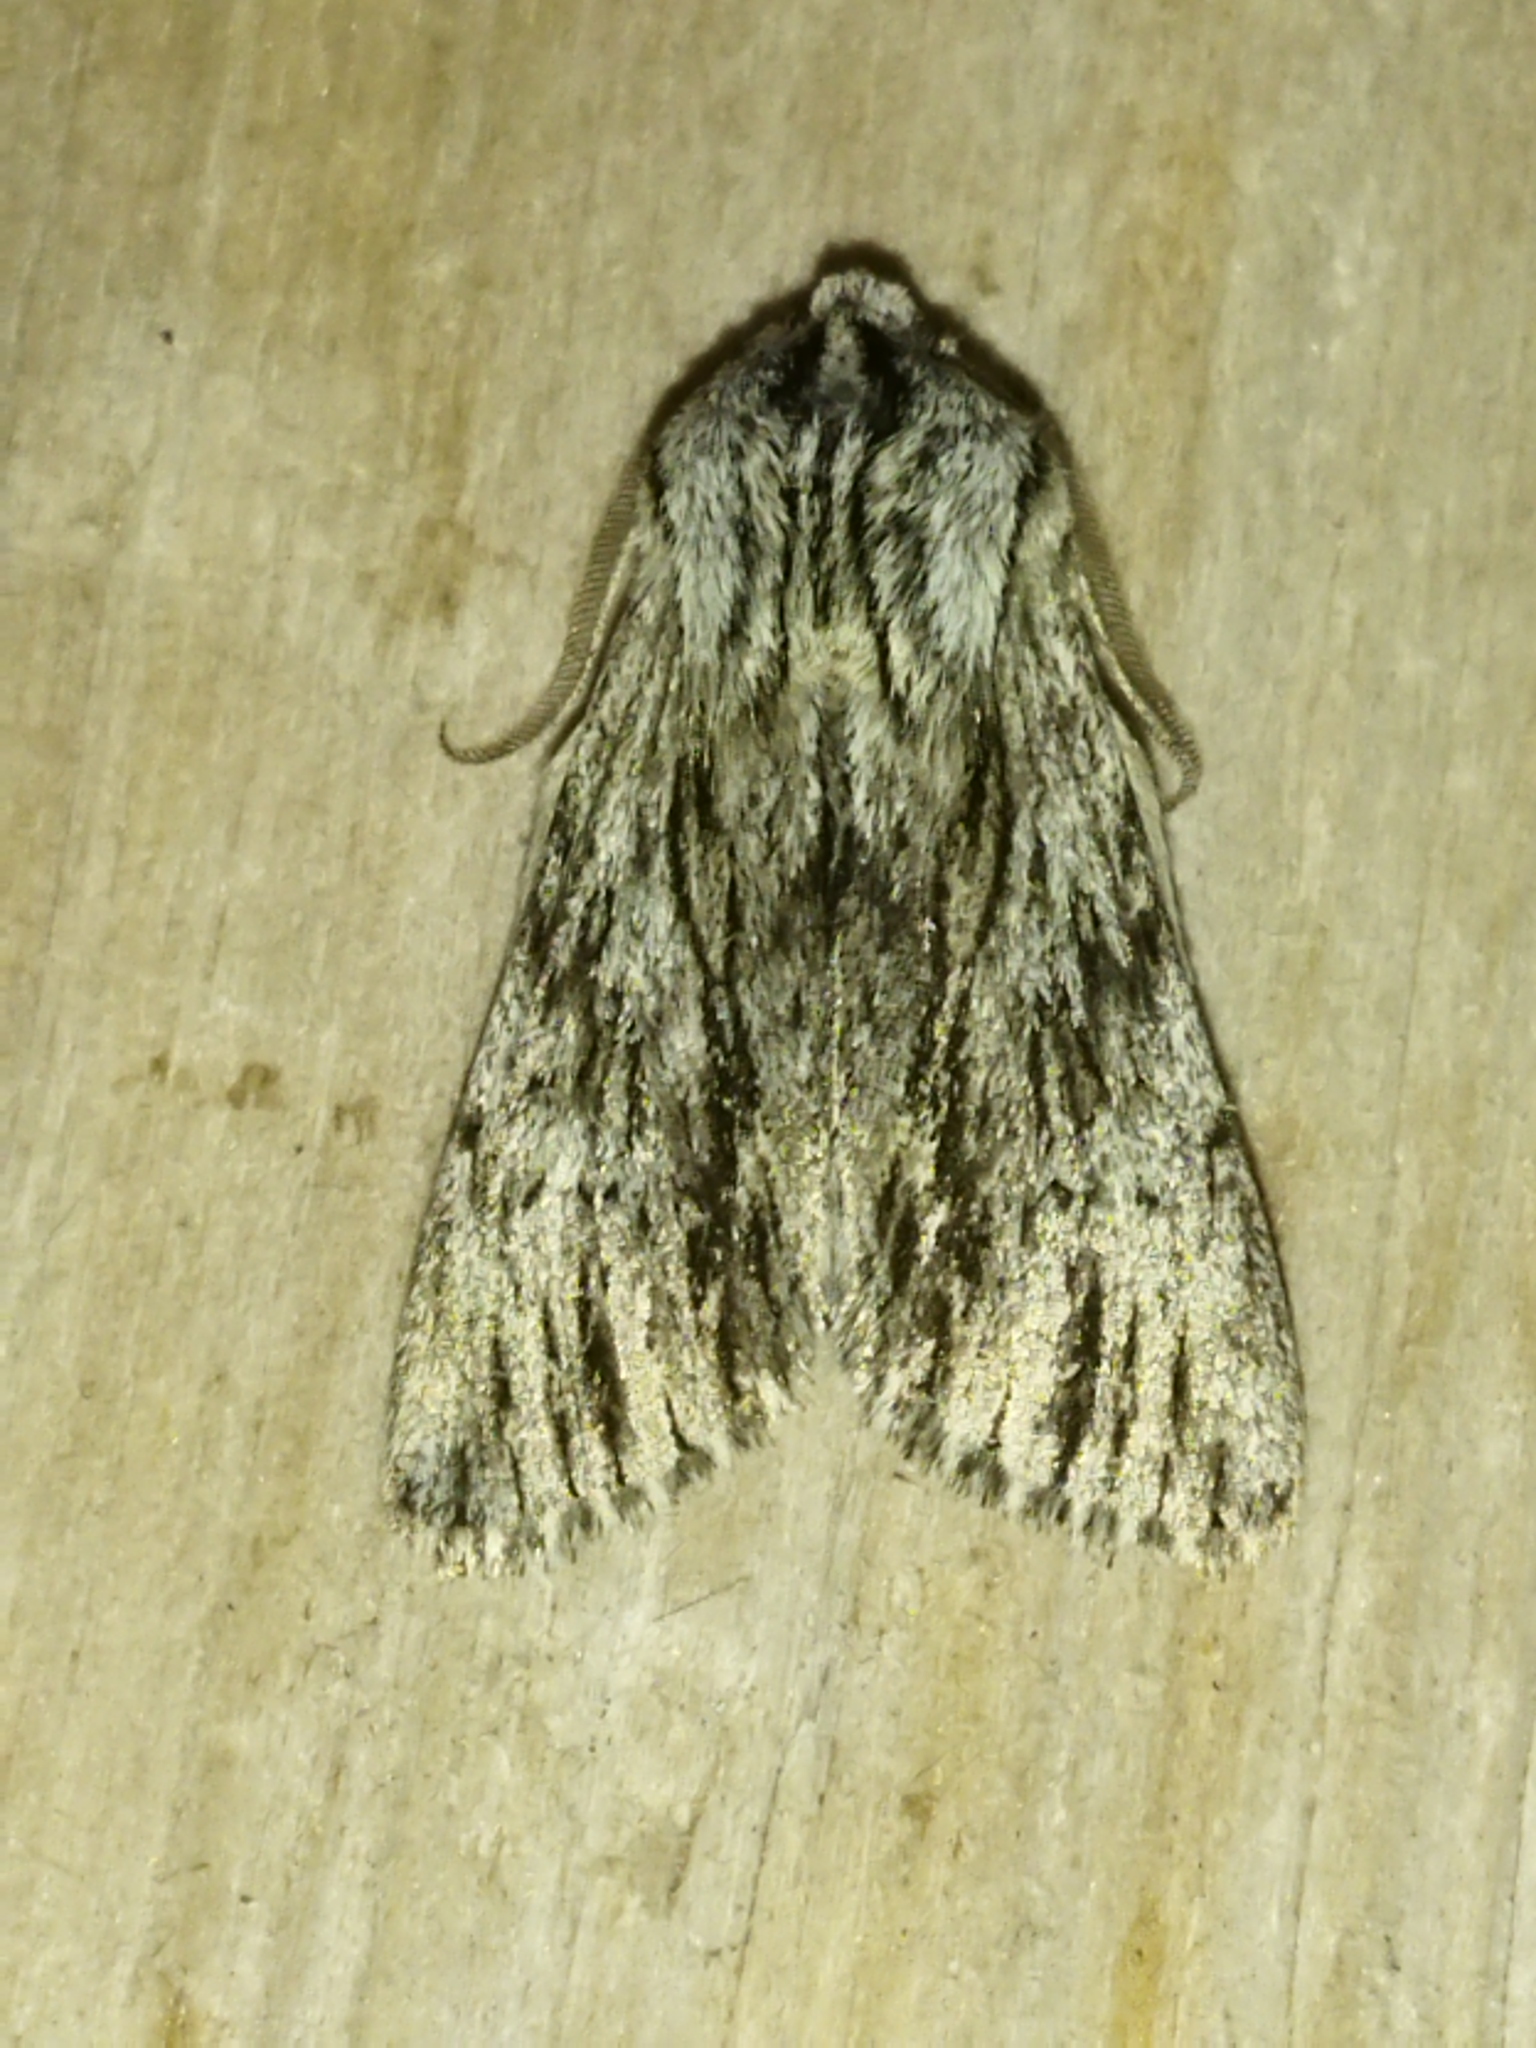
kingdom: Animalia
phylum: Arthropoda
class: Insecta
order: Lepidoptera
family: Noctuidae
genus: Asteroscopus
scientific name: Asteroscopus sphinx
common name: The sprawler
